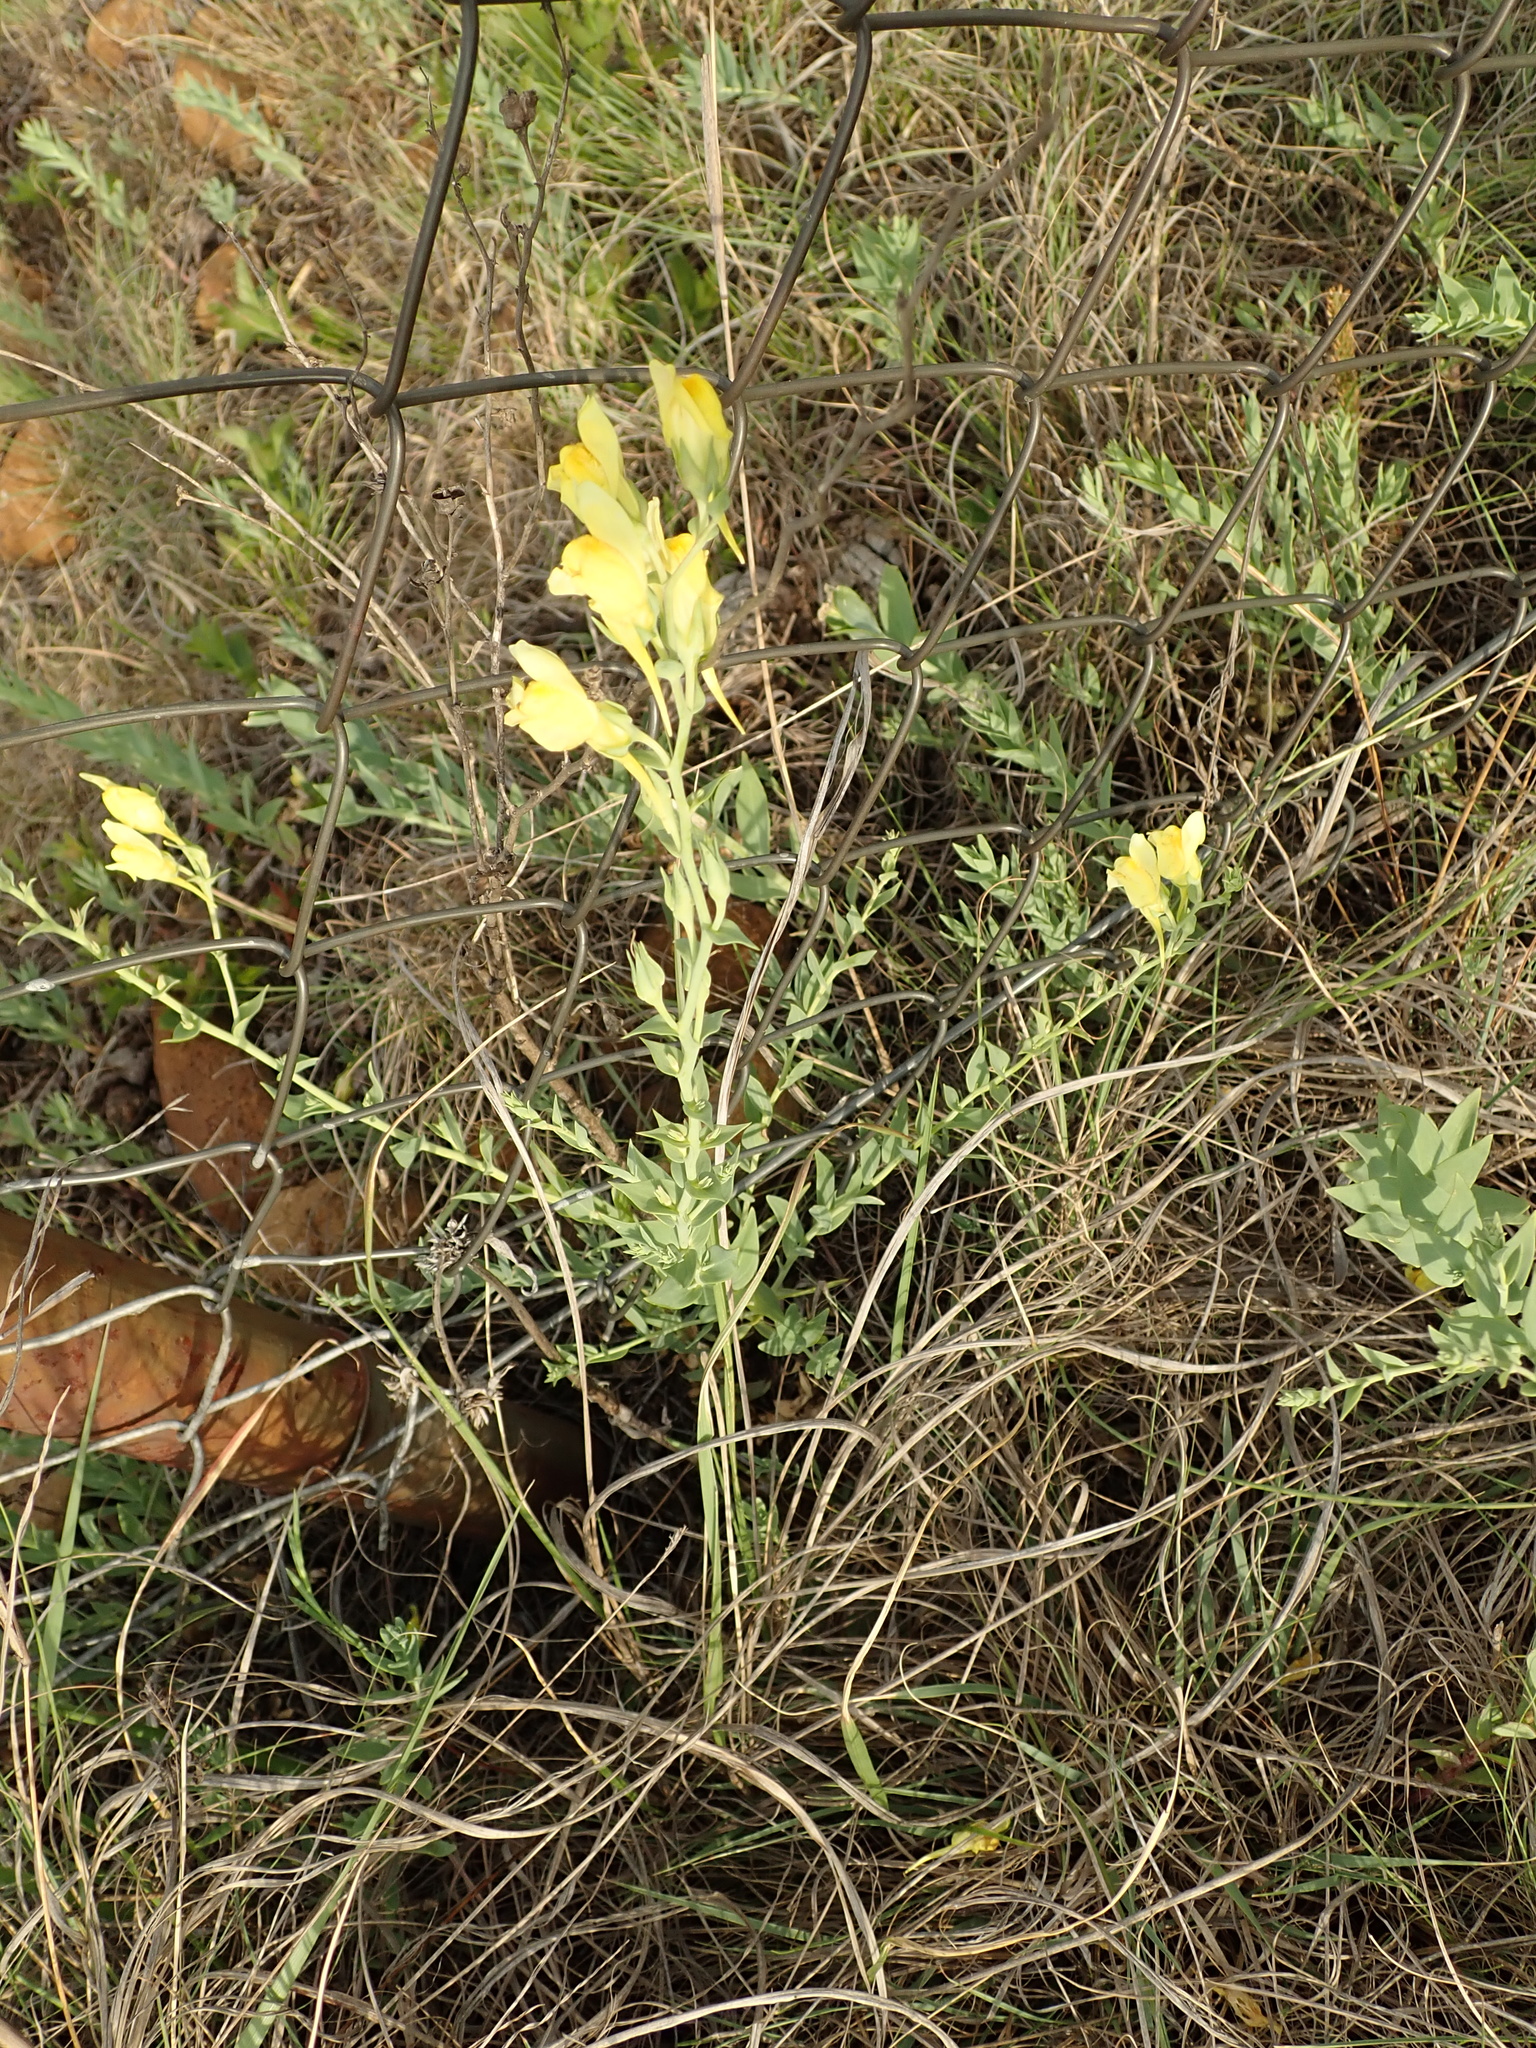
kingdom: Plantae
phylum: Tracheophyta
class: Magnoliopsida
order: Lamiales
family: Plantaginaceae
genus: Linaria
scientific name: Linaria dalmatica
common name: Dalmatian toadflax
